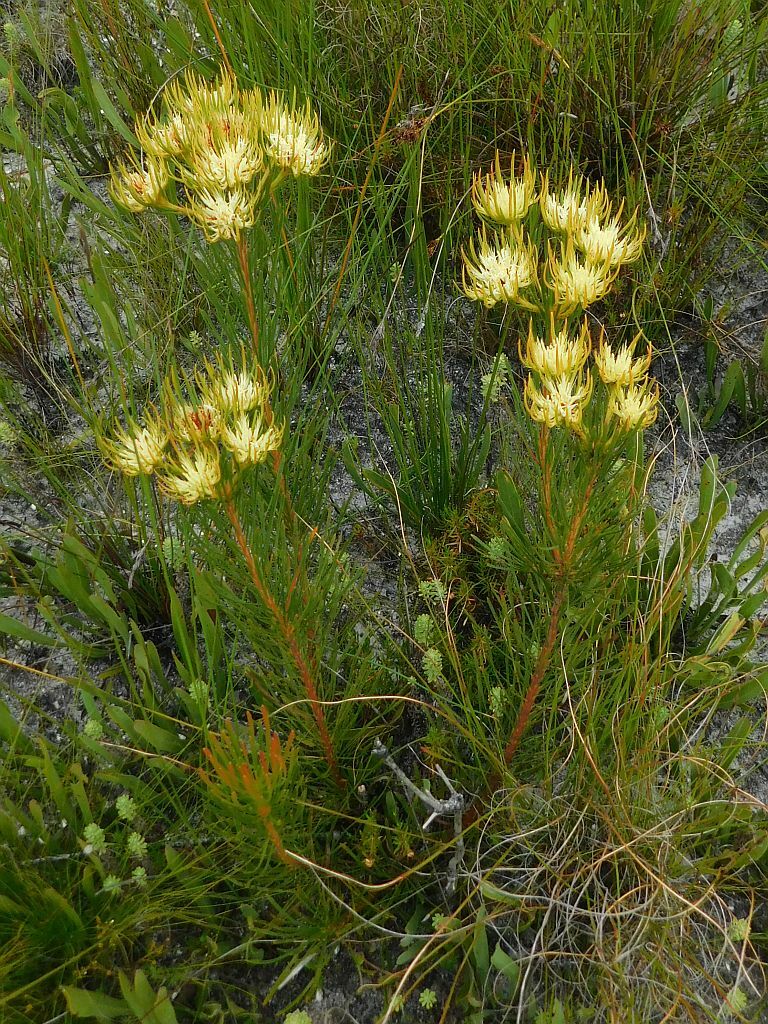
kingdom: Plantae
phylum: Tracheophyta
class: Magnoliopsida
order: Proteales
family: Proteaceae
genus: Aulax
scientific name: Aulax pallasia
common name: Needle-leaf featherbush
